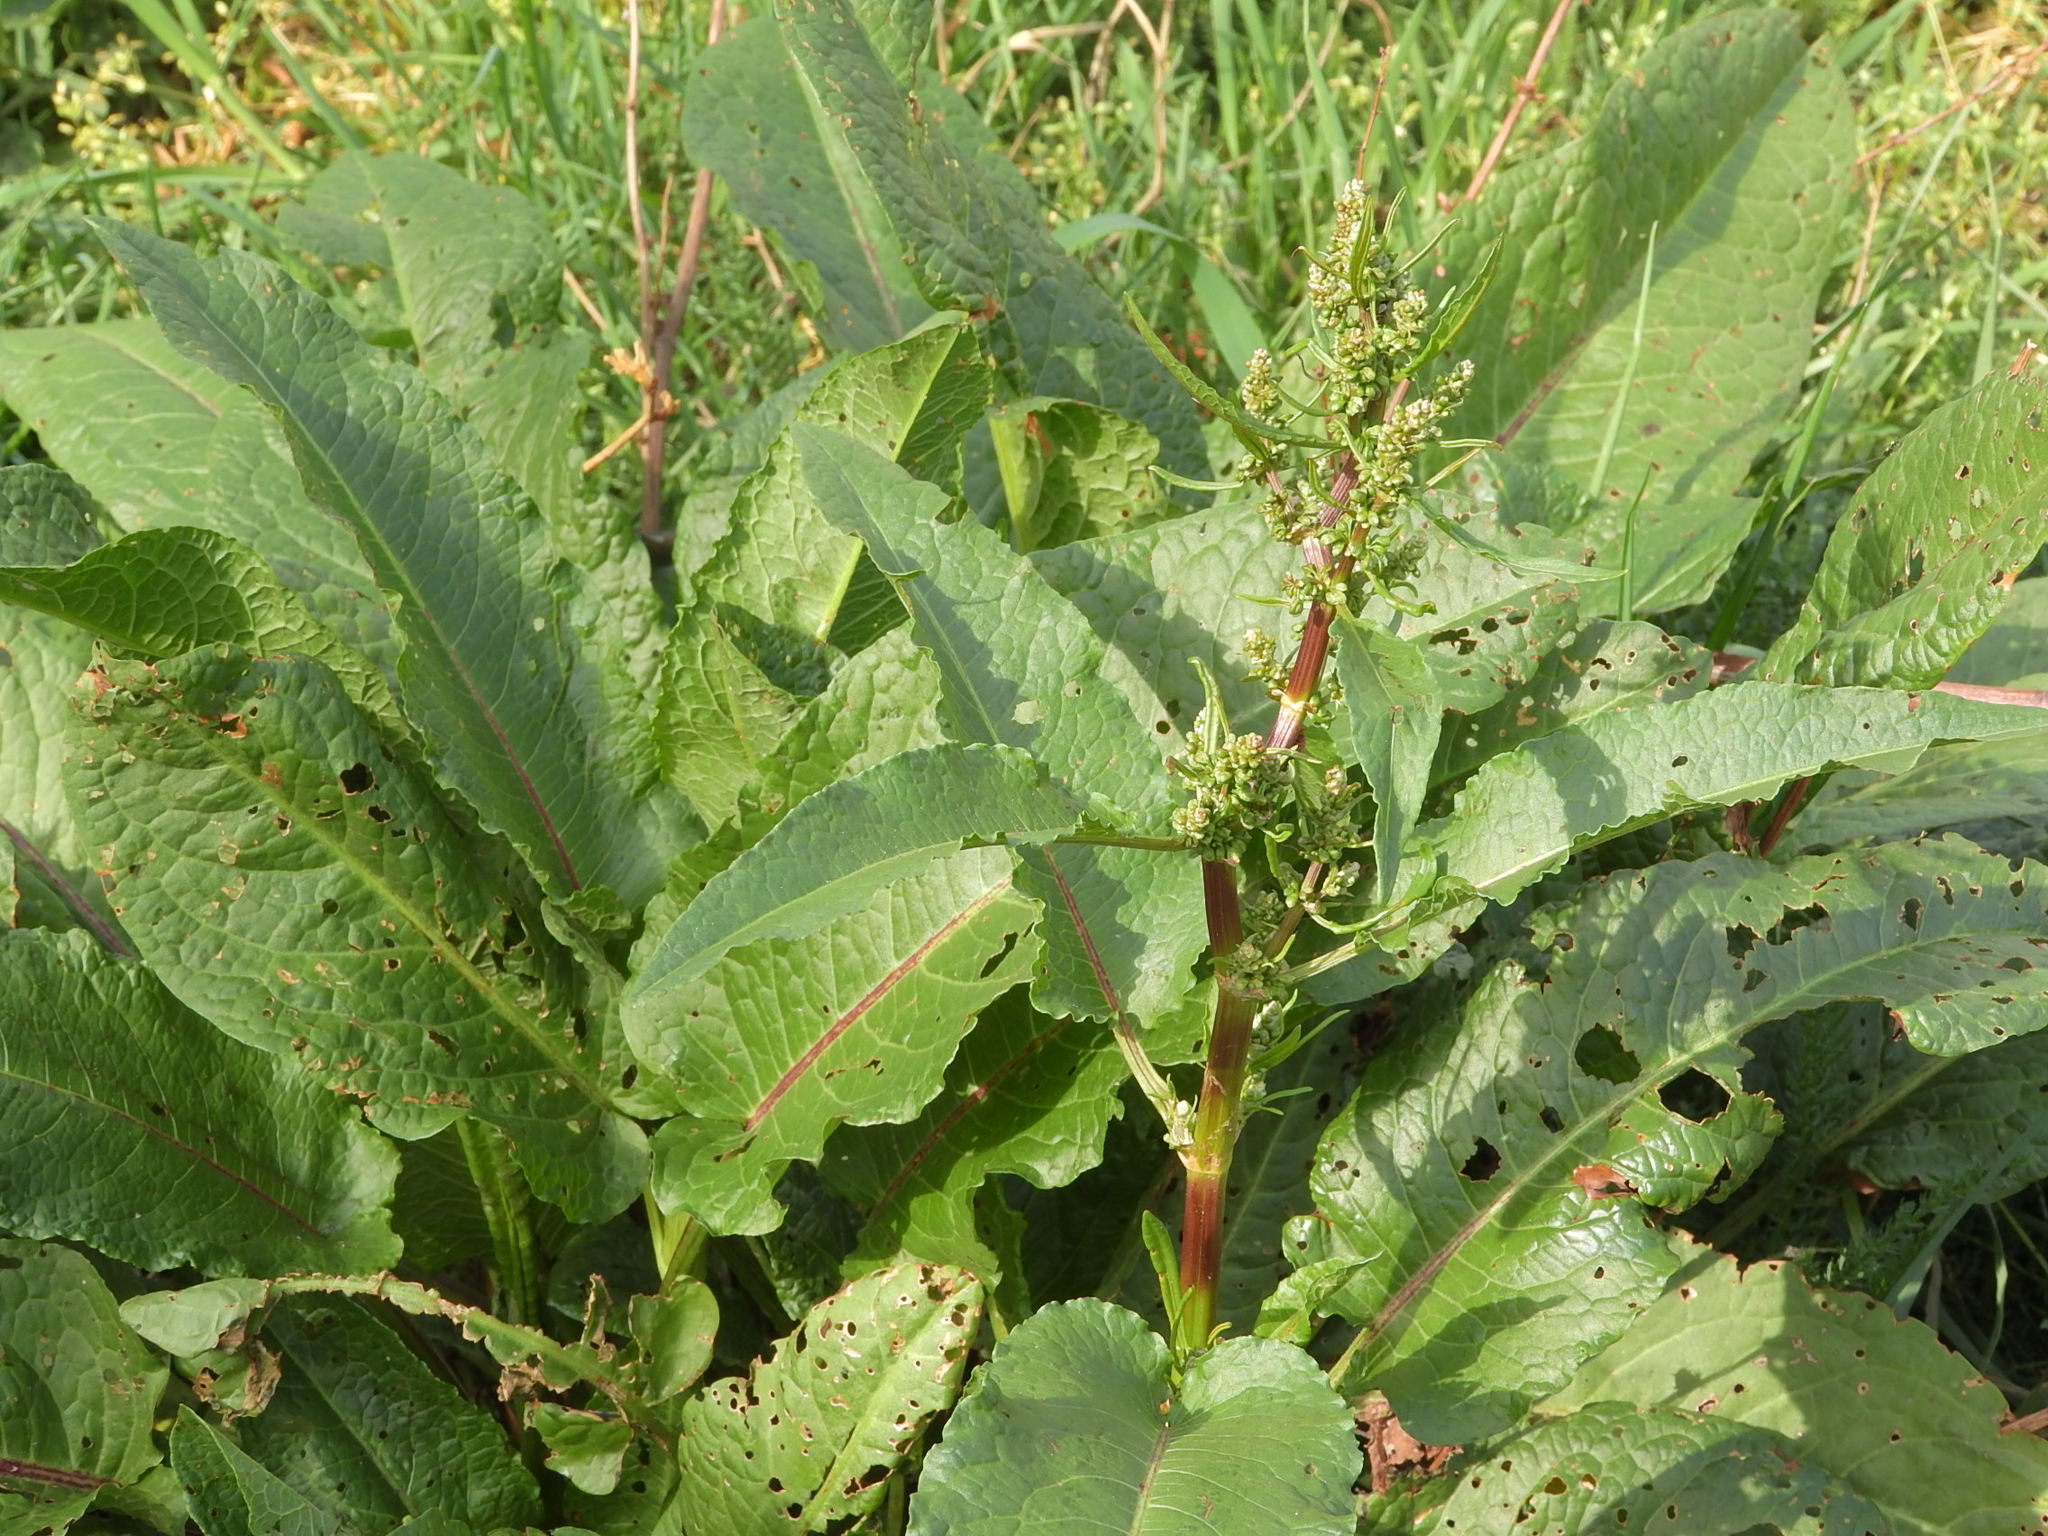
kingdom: Plantae
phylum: Tracheophyta
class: Magnoliopsida
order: Caryophyllales
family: Polygonaceae
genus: Rumex
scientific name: Rumex obtusifolius
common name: Bitter dock
